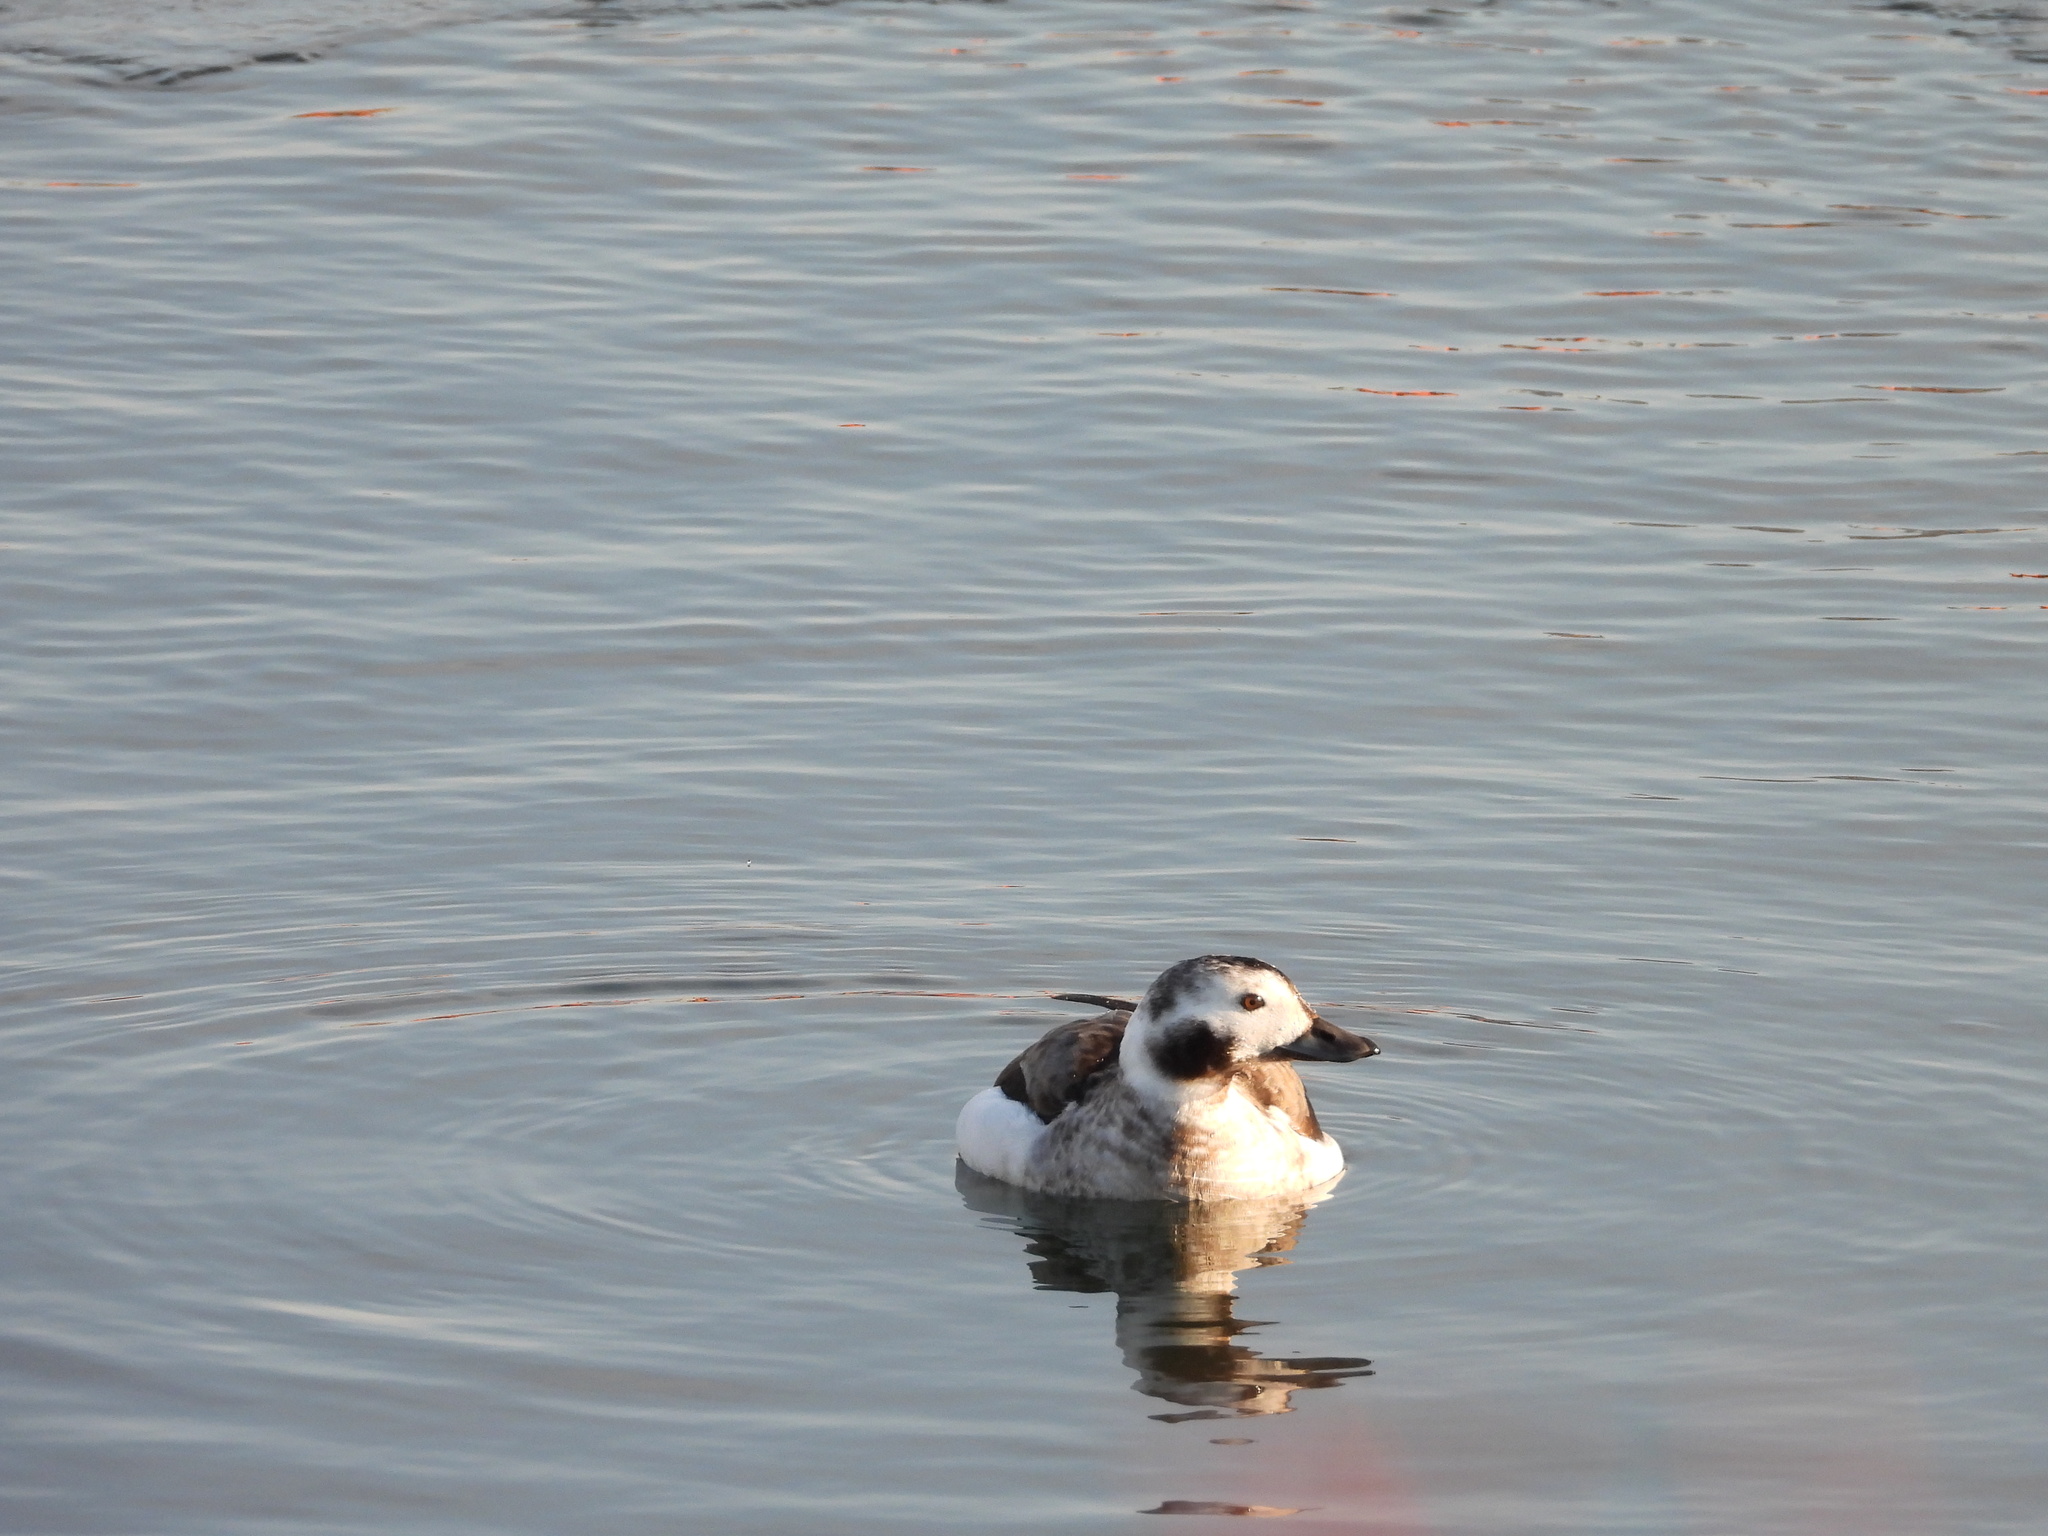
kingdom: Animalia
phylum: Chordata
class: Aves
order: Anseriformes
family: Anatidae
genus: Clangula
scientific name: Clangula hyemalis
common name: Long-tailed duck
